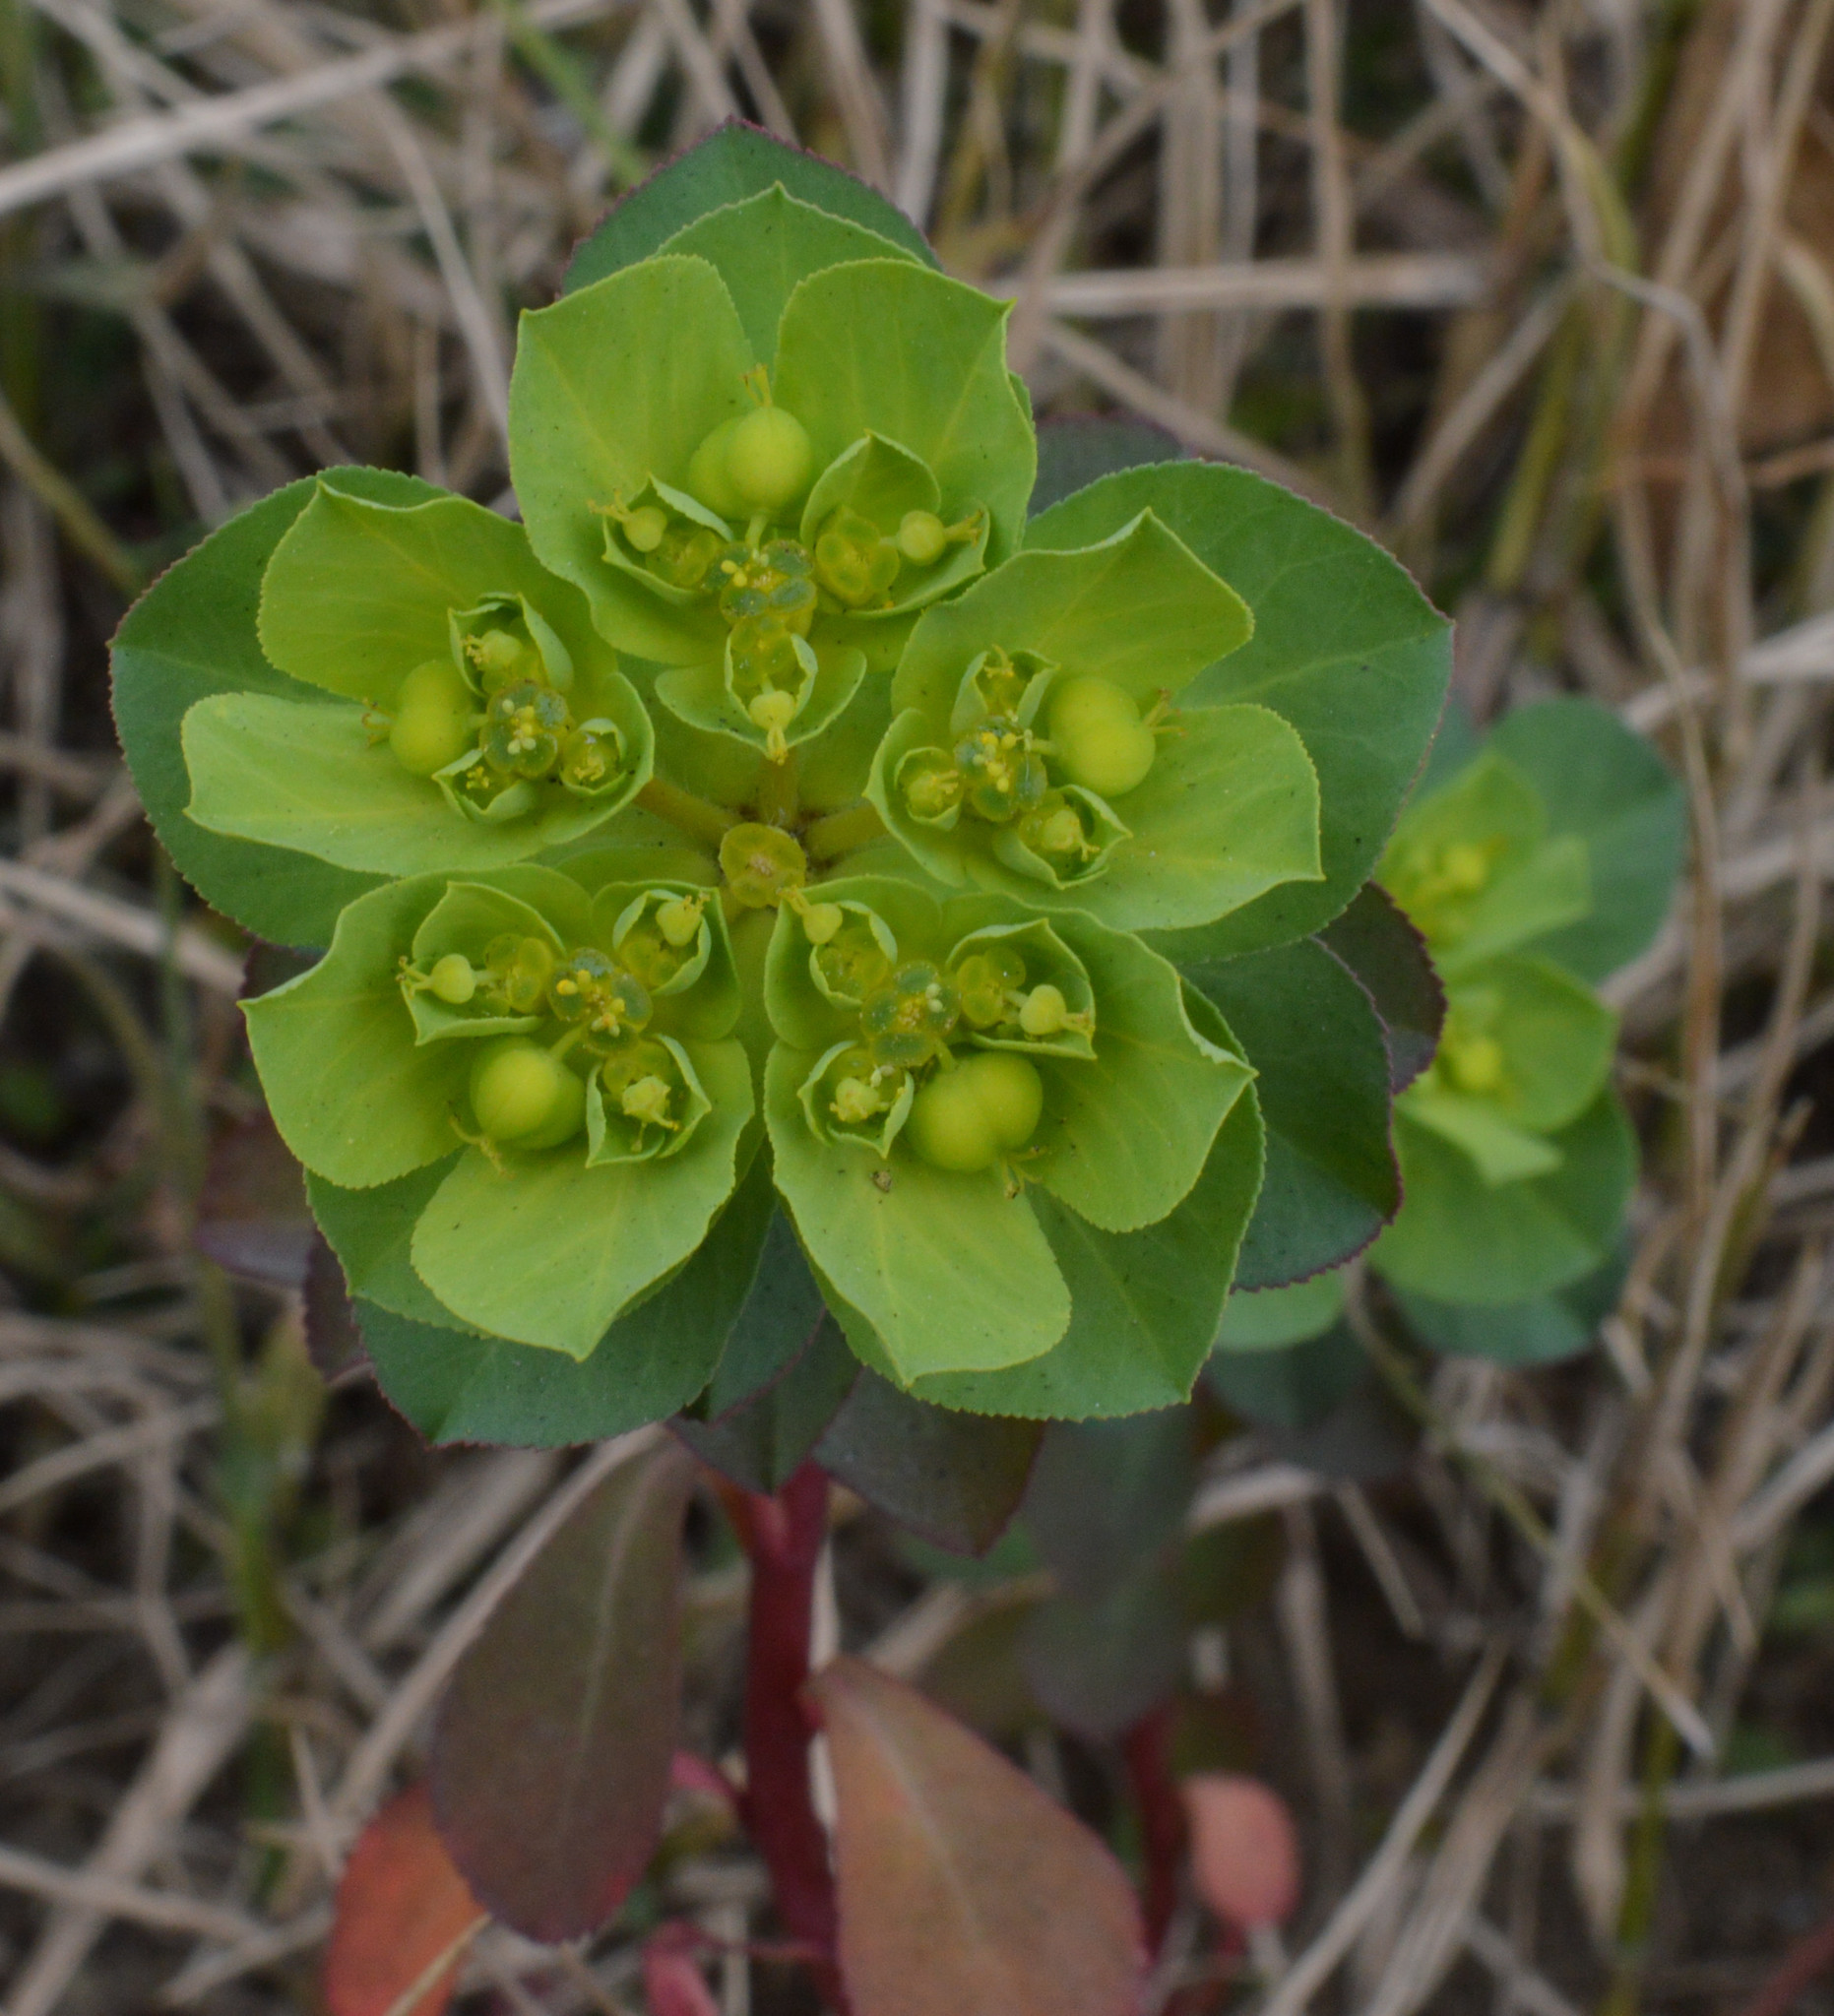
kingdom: Plantae
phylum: Tracheophyta
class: Magnoliopsida
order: Malpighiales
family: Euphorbiaceae
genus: Euphorbia
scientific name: Euphorbia helioscopia
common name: Sun spurge
